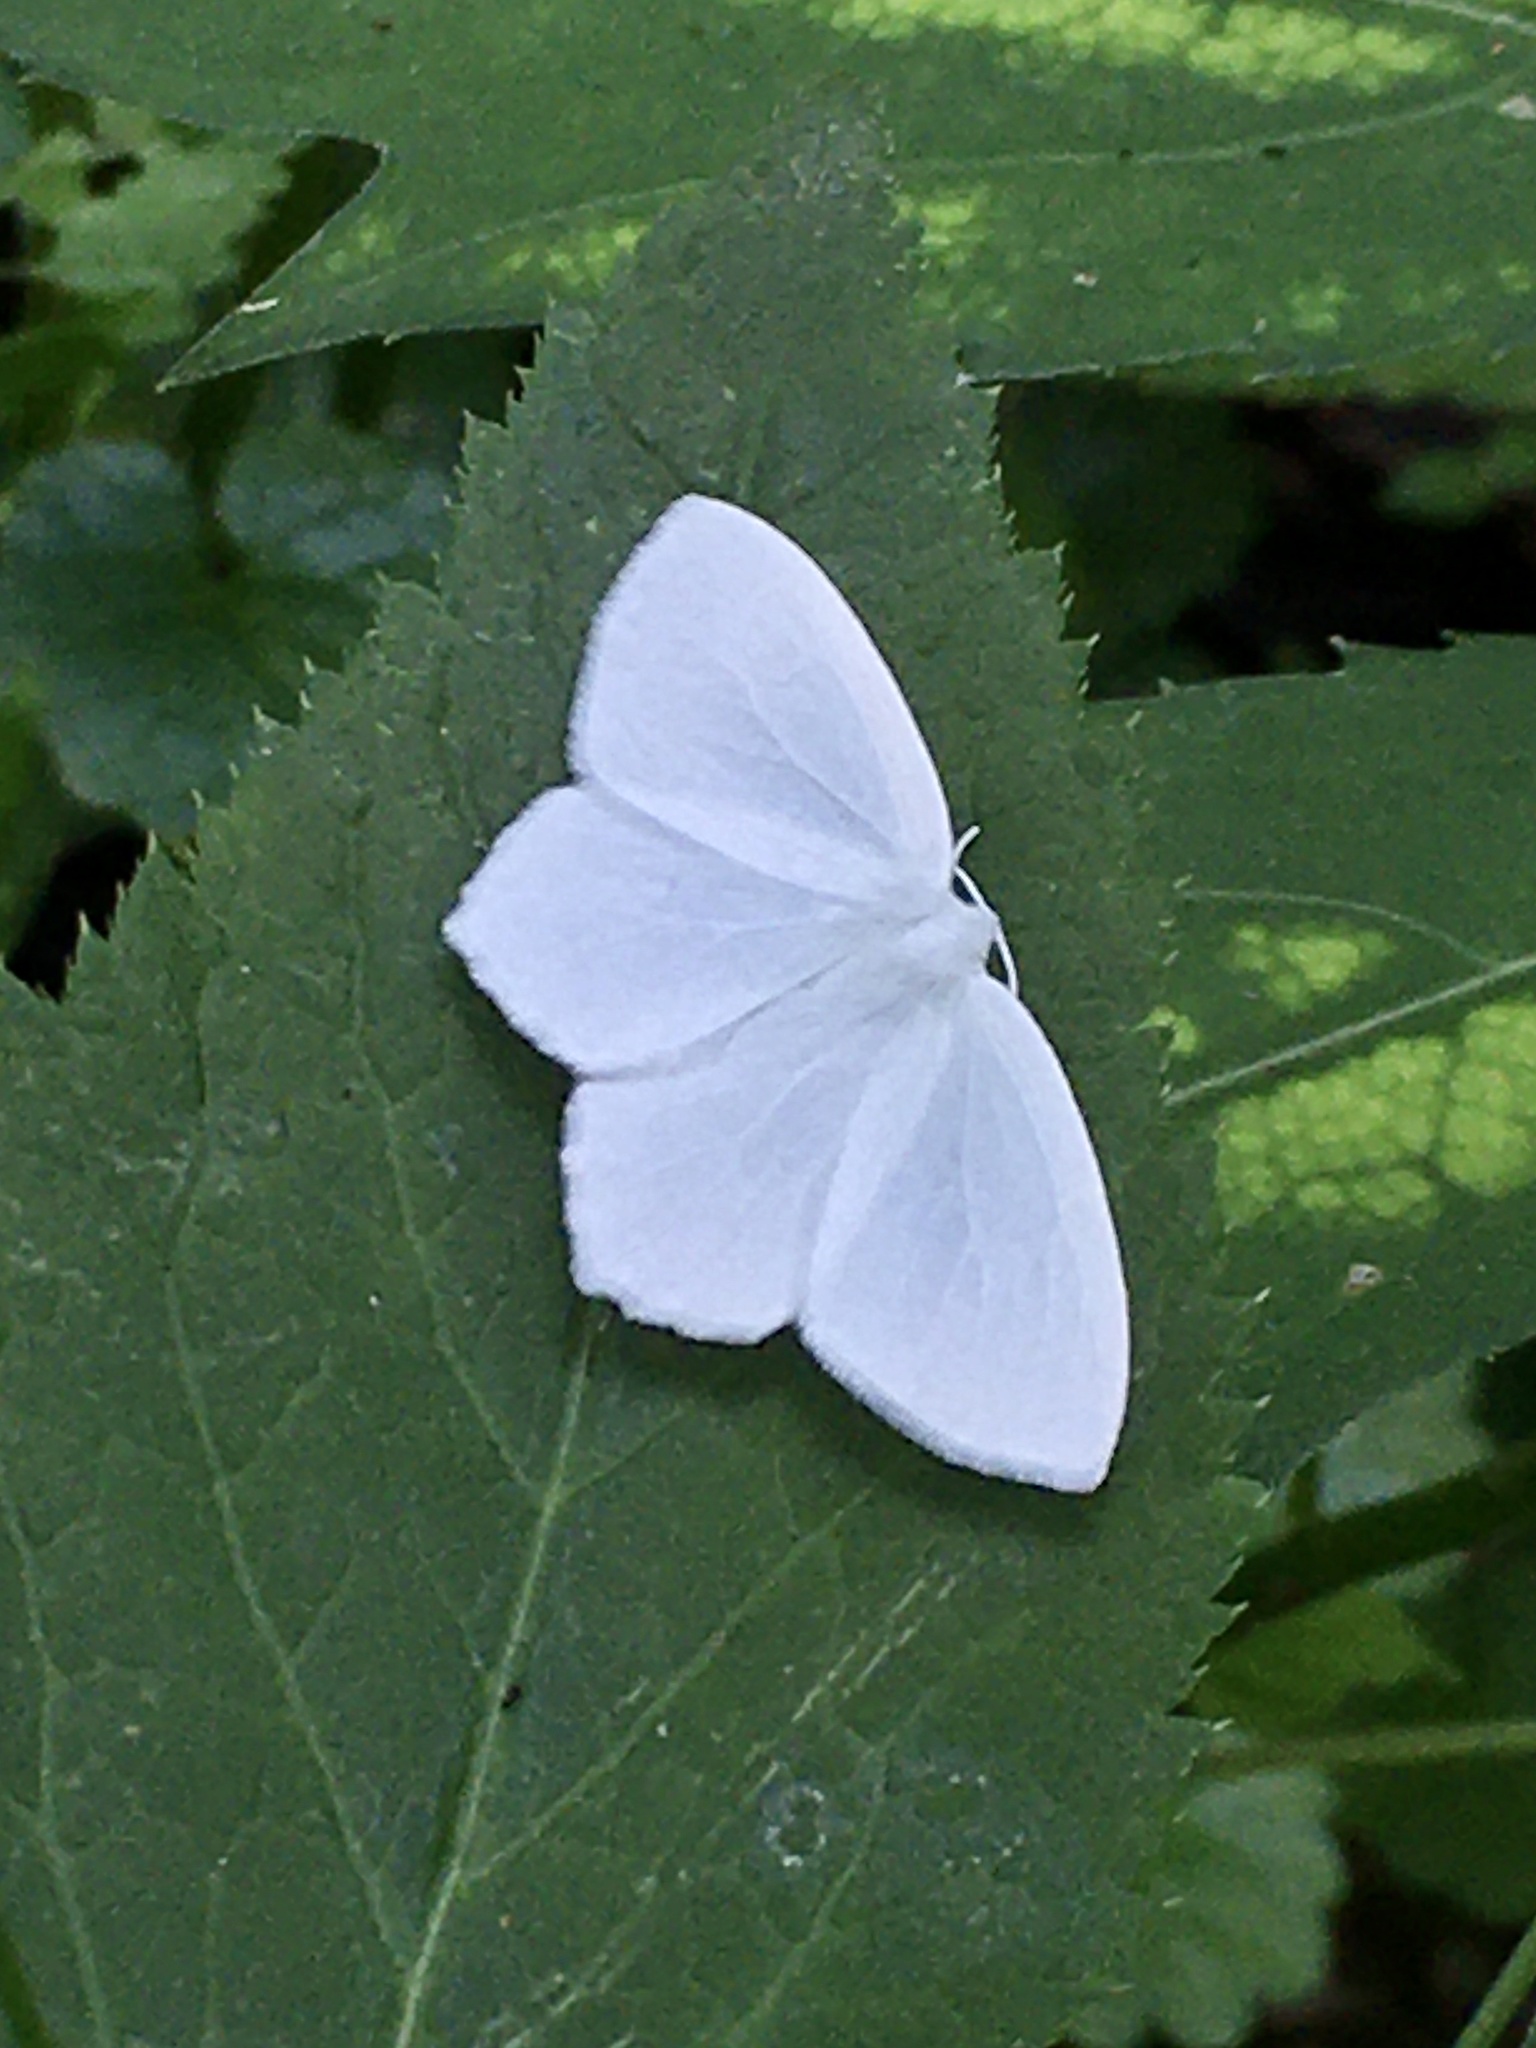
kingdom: Animalia
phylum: Arthropoda
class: Insecta
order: Lepidoptera
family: Geometridae
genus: Eugonobapta
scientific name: Eugonobapta nivosaria
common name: Snowy geometer
